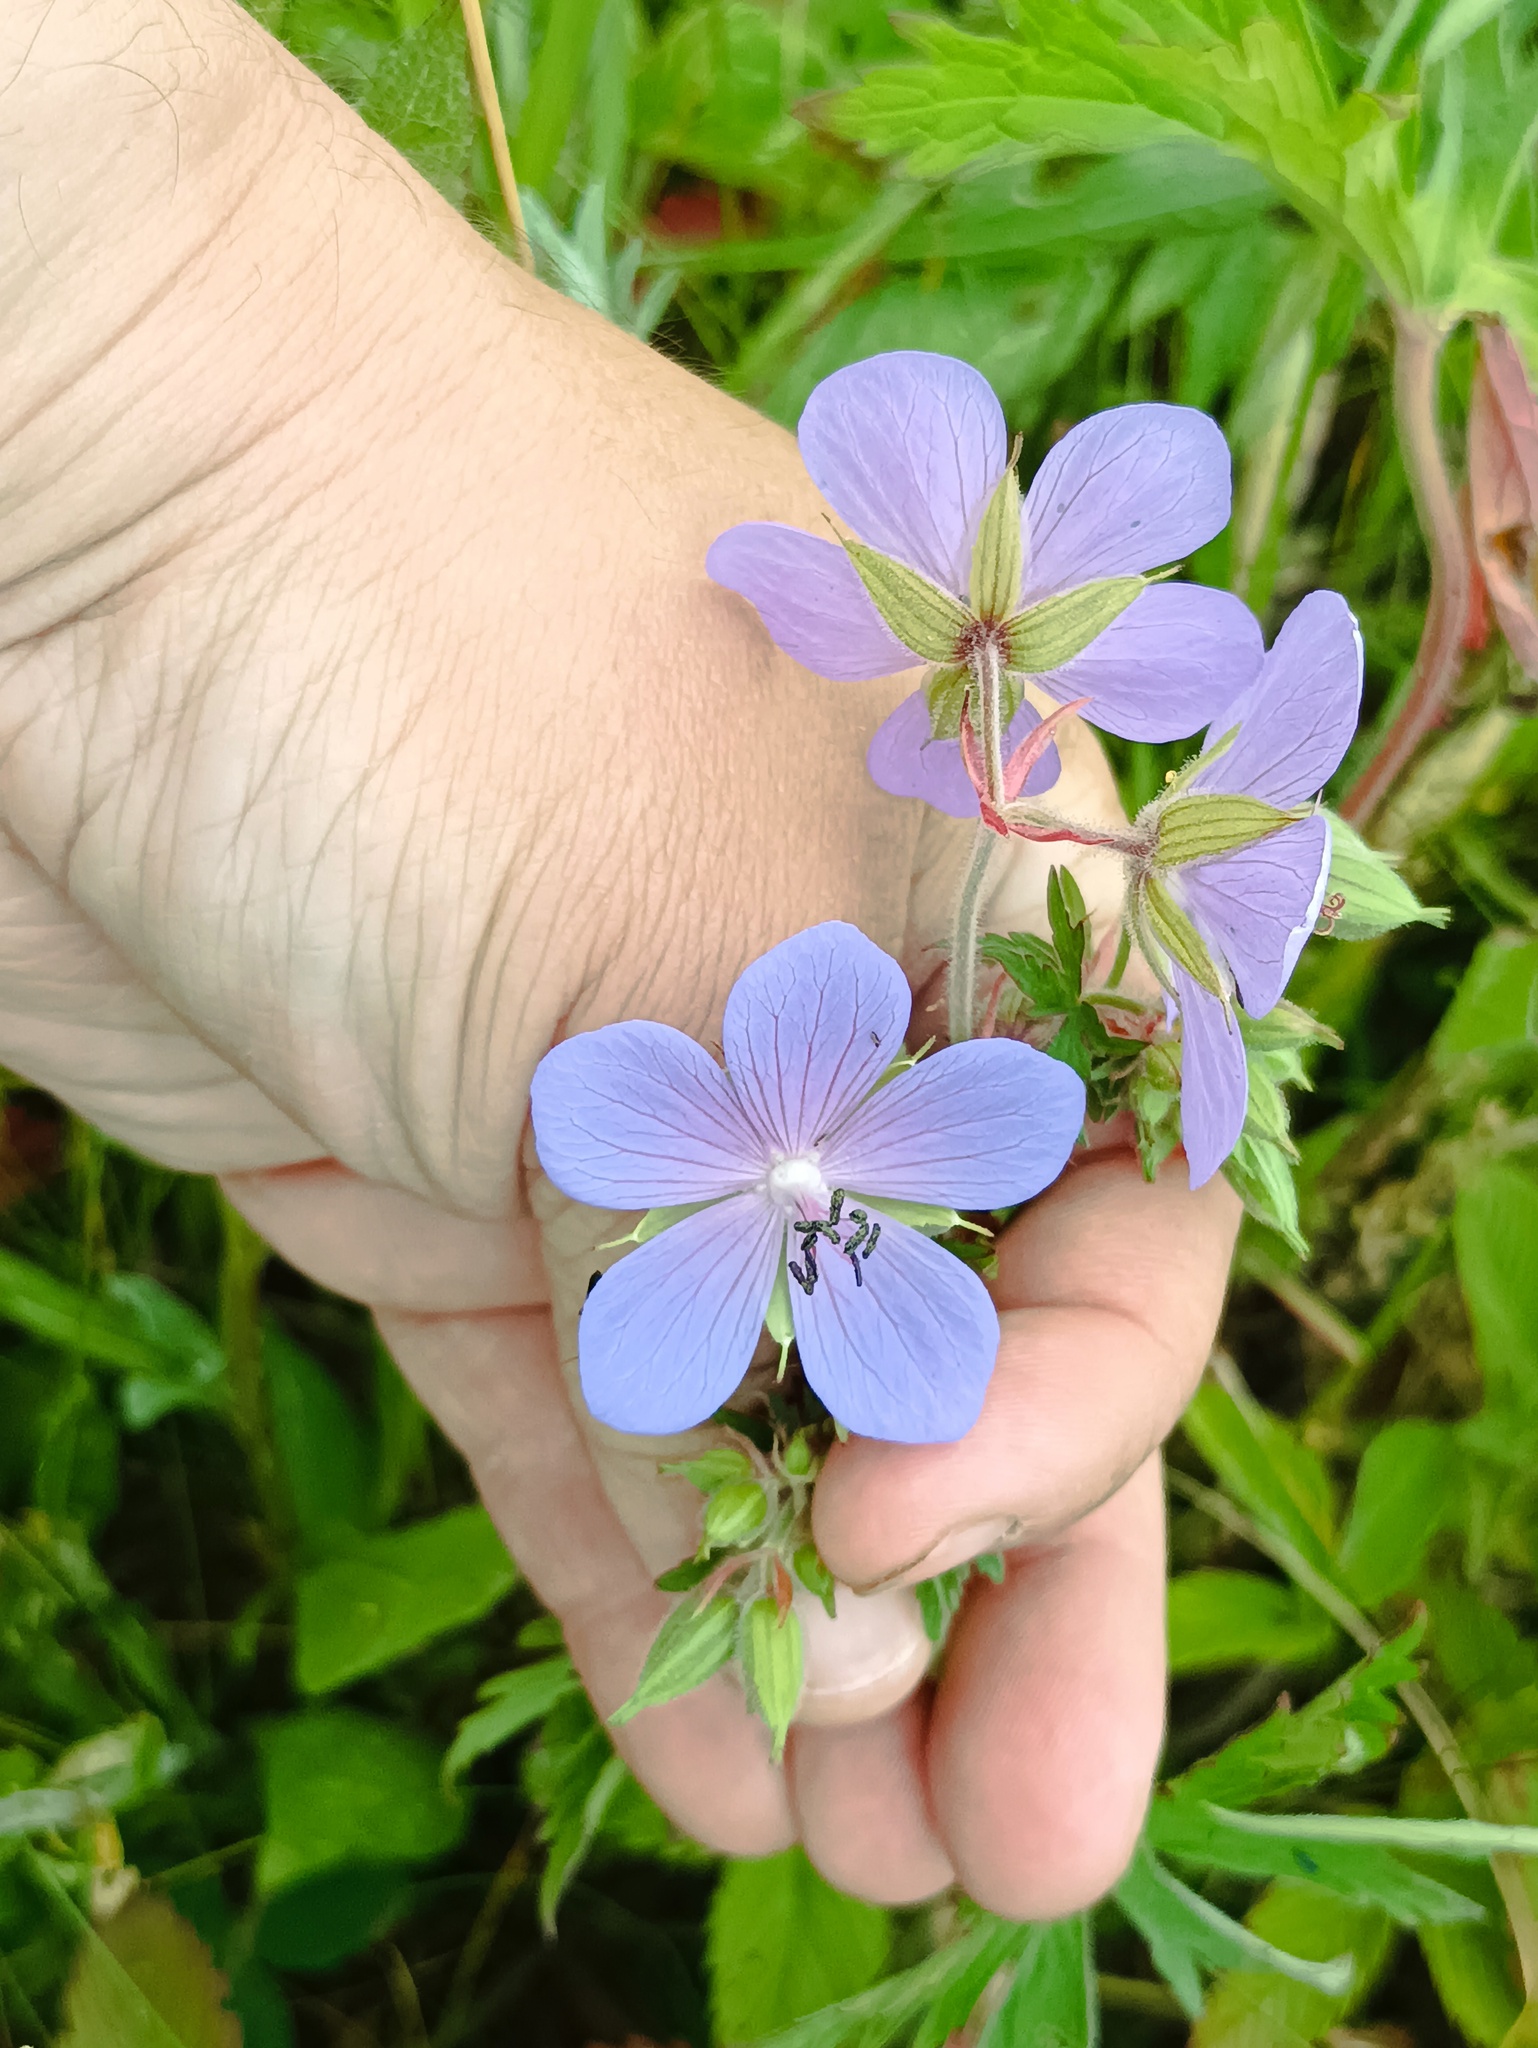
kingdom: Plantae
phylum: Tracheophyta
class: Magnoliopsida
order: Geraniales
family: Geraniaceae
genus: Geranium
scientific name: Geranium pratense
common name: Meadow crane's-bill
